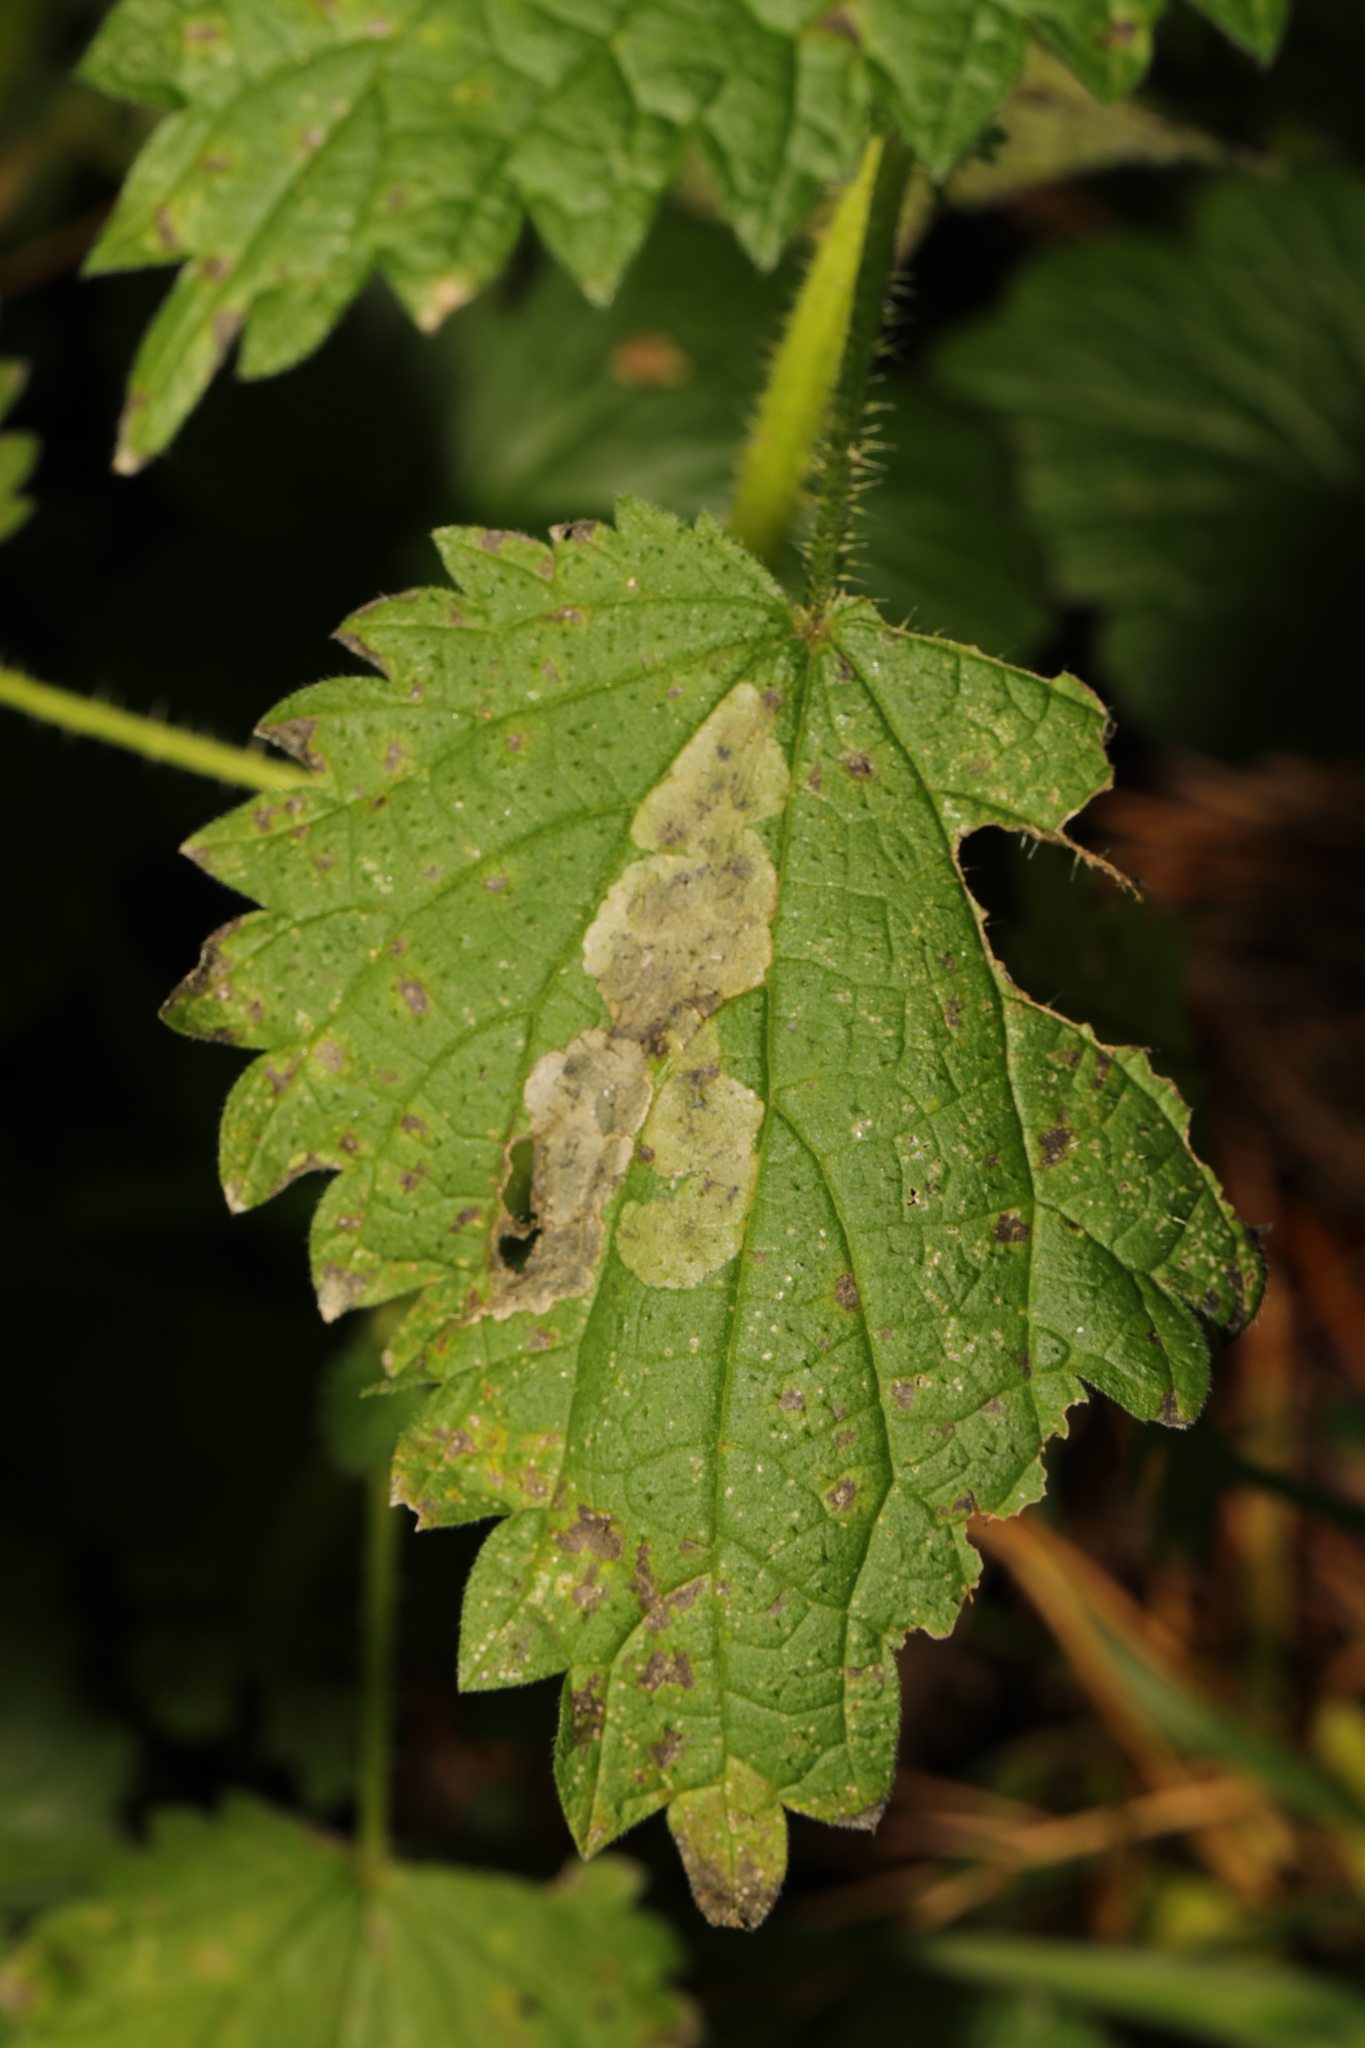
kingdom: Animalia
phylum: Arthropoda
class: Insecta
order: Diptera
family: Agromyzidae
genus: Agromyza
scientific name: Agromyza anthracina
